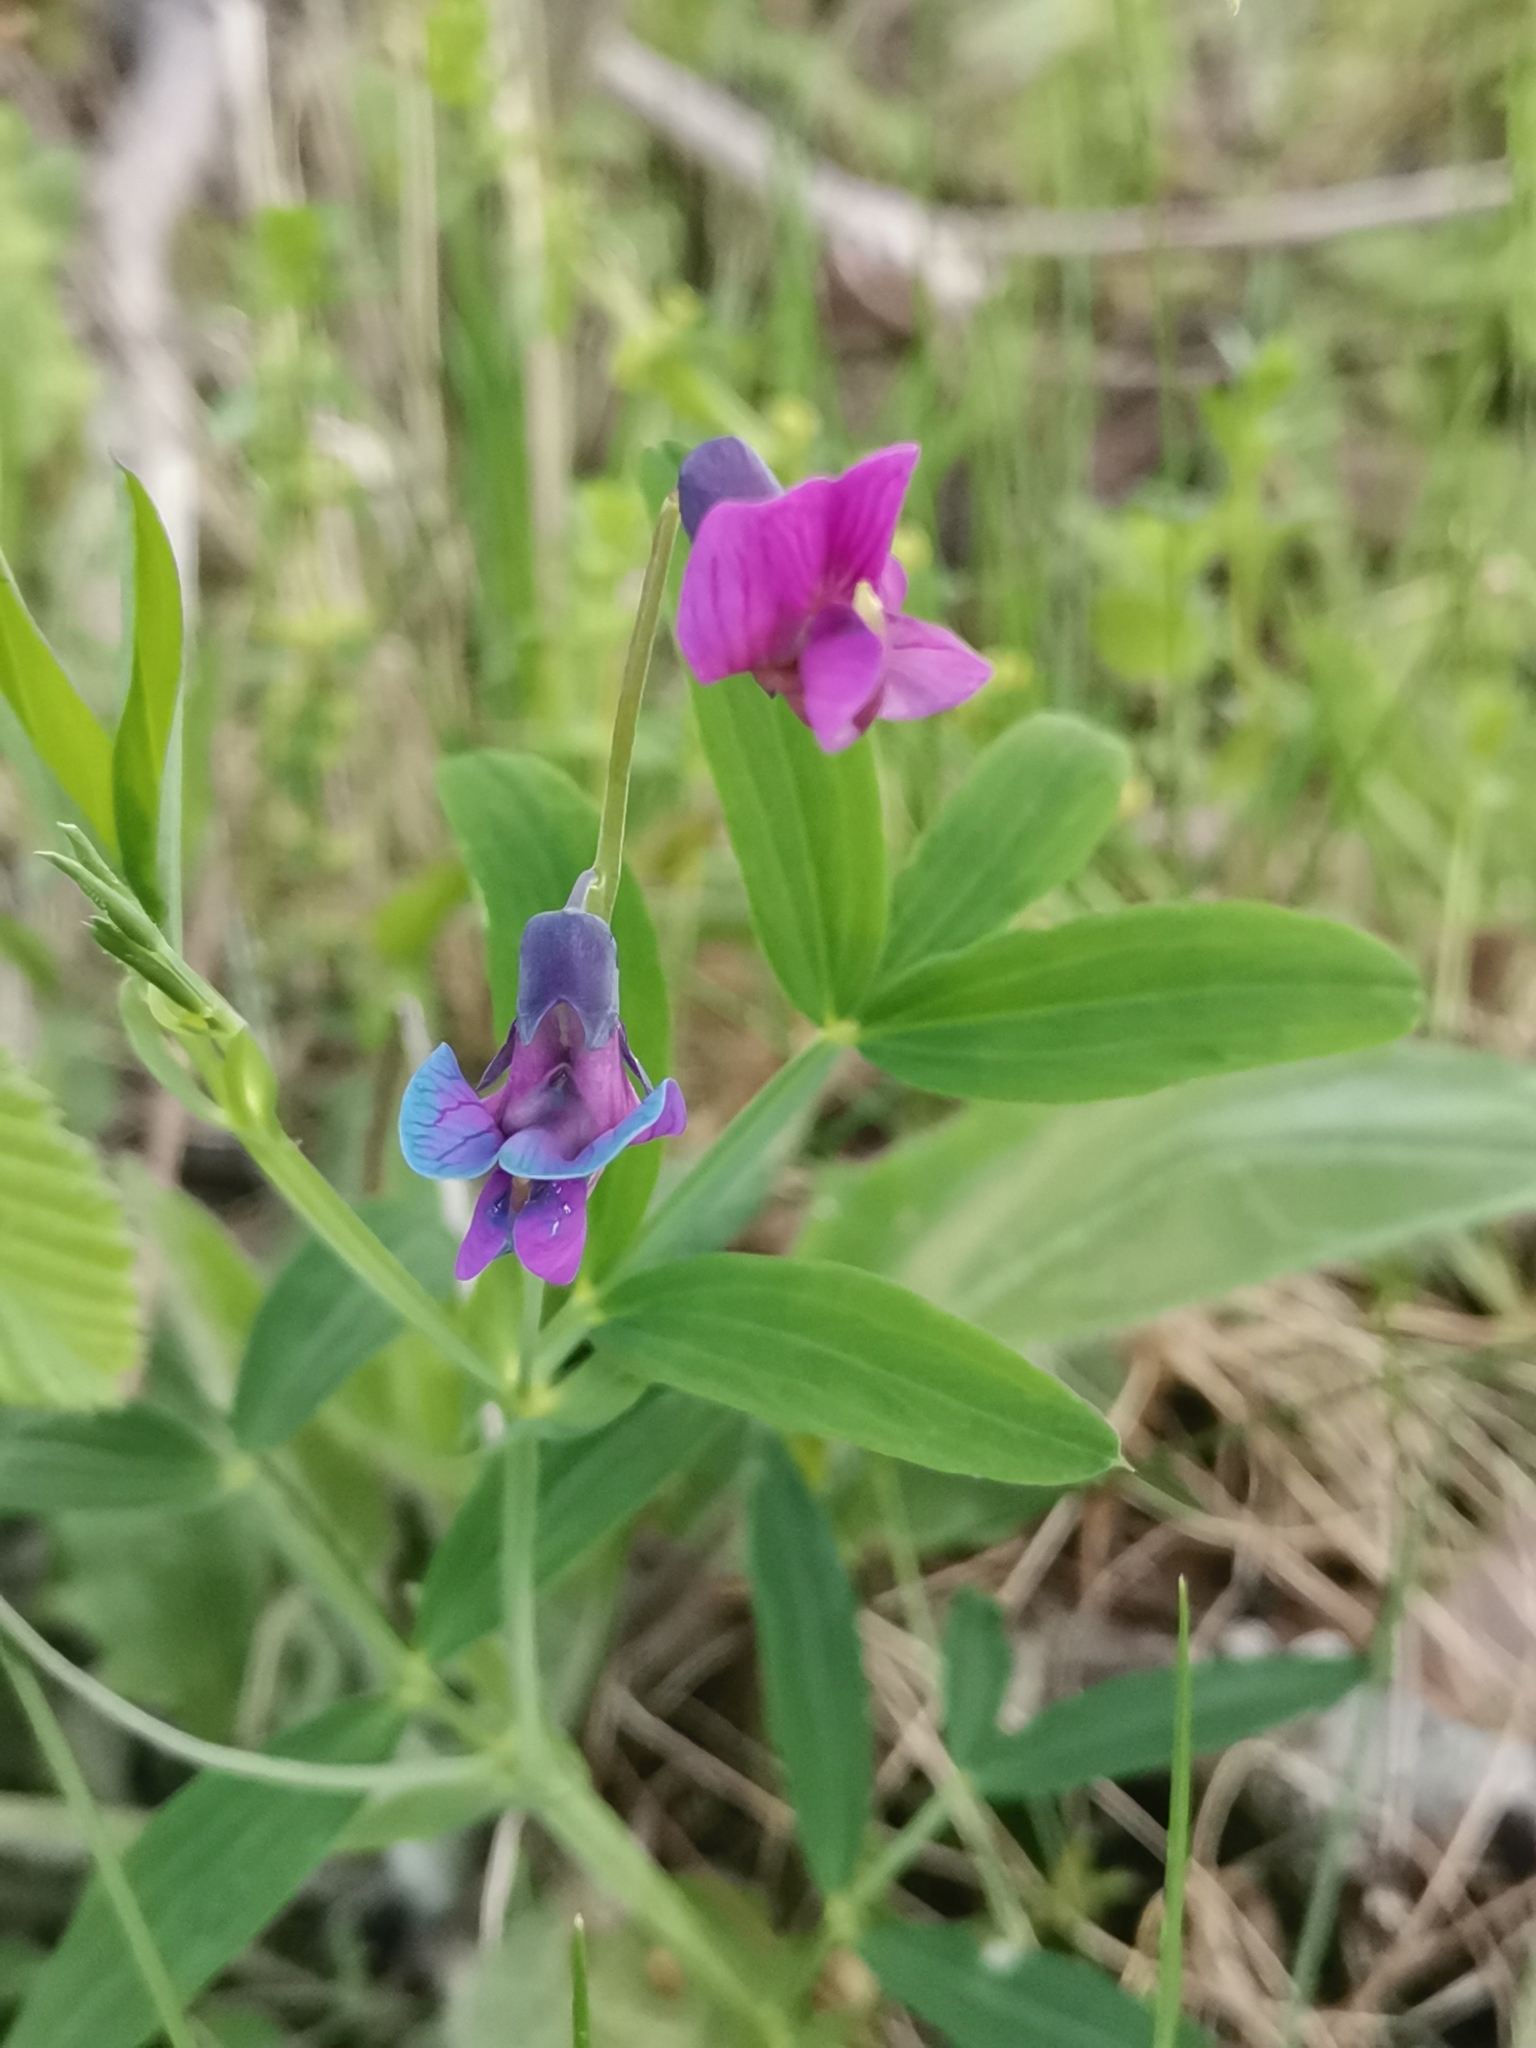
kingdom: Plantae
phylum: Tracheophyta
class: Magnoliopsida
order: Fabales
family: Fabaceae
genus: Lathyrus
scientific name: Lathyrus linifolius
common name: Bitter-vetch
